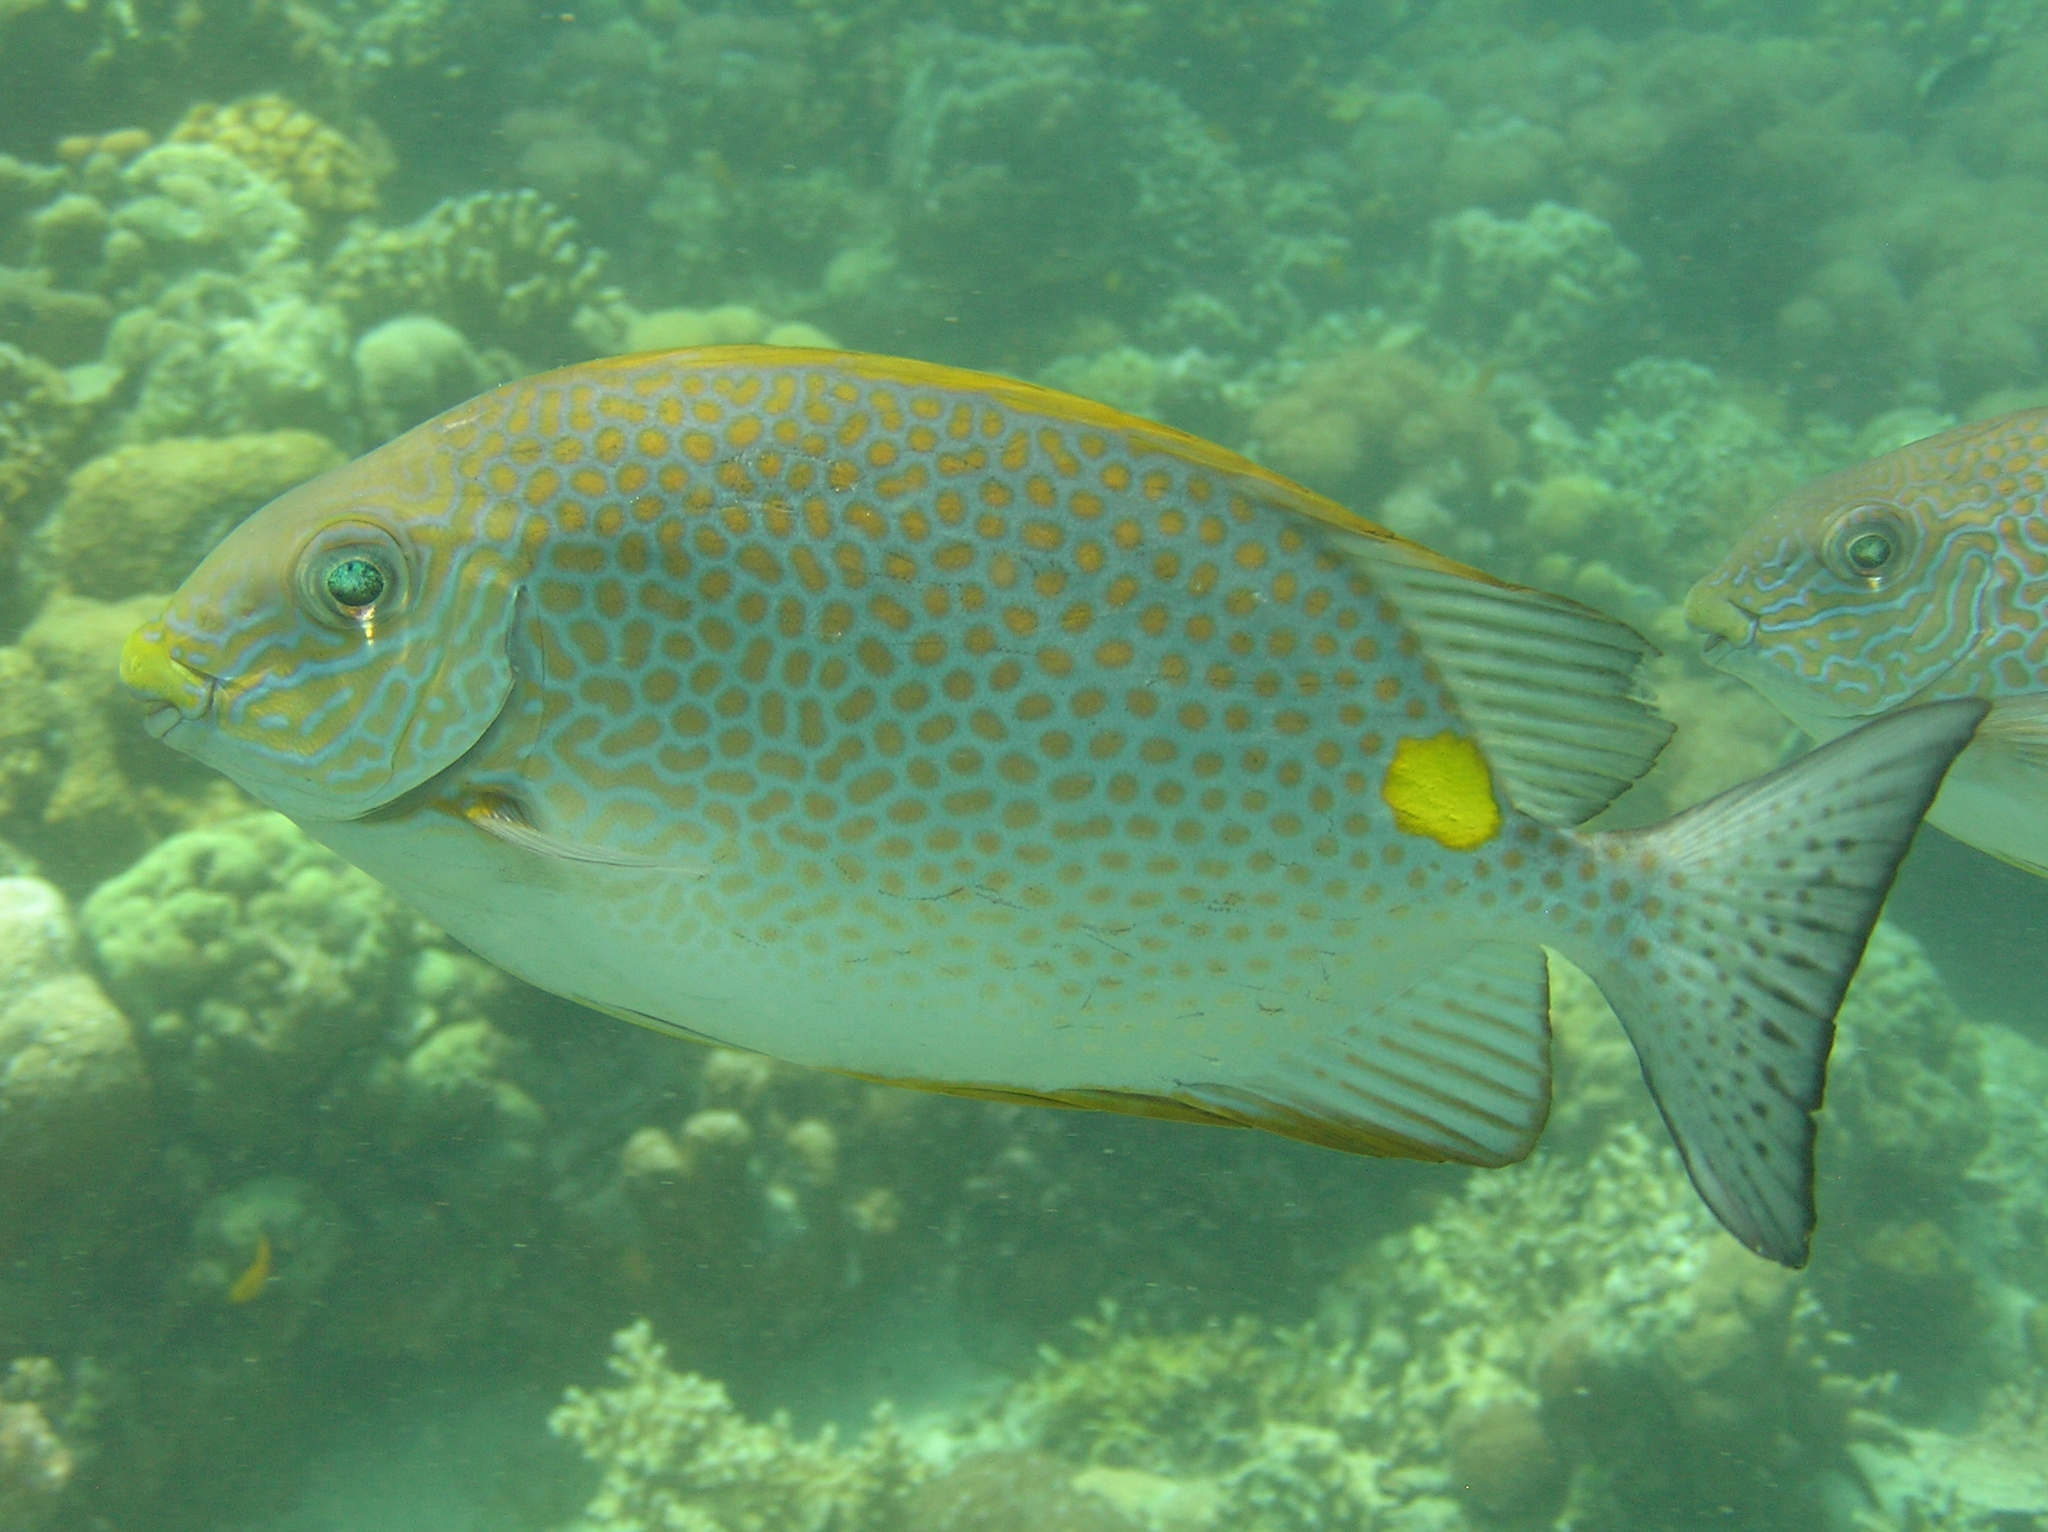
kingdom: Animalia
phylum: Chordata
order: Perciformes
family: Siganidae
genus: Siganus
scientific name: Siganus guttatus
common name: Golden rabbitfish
